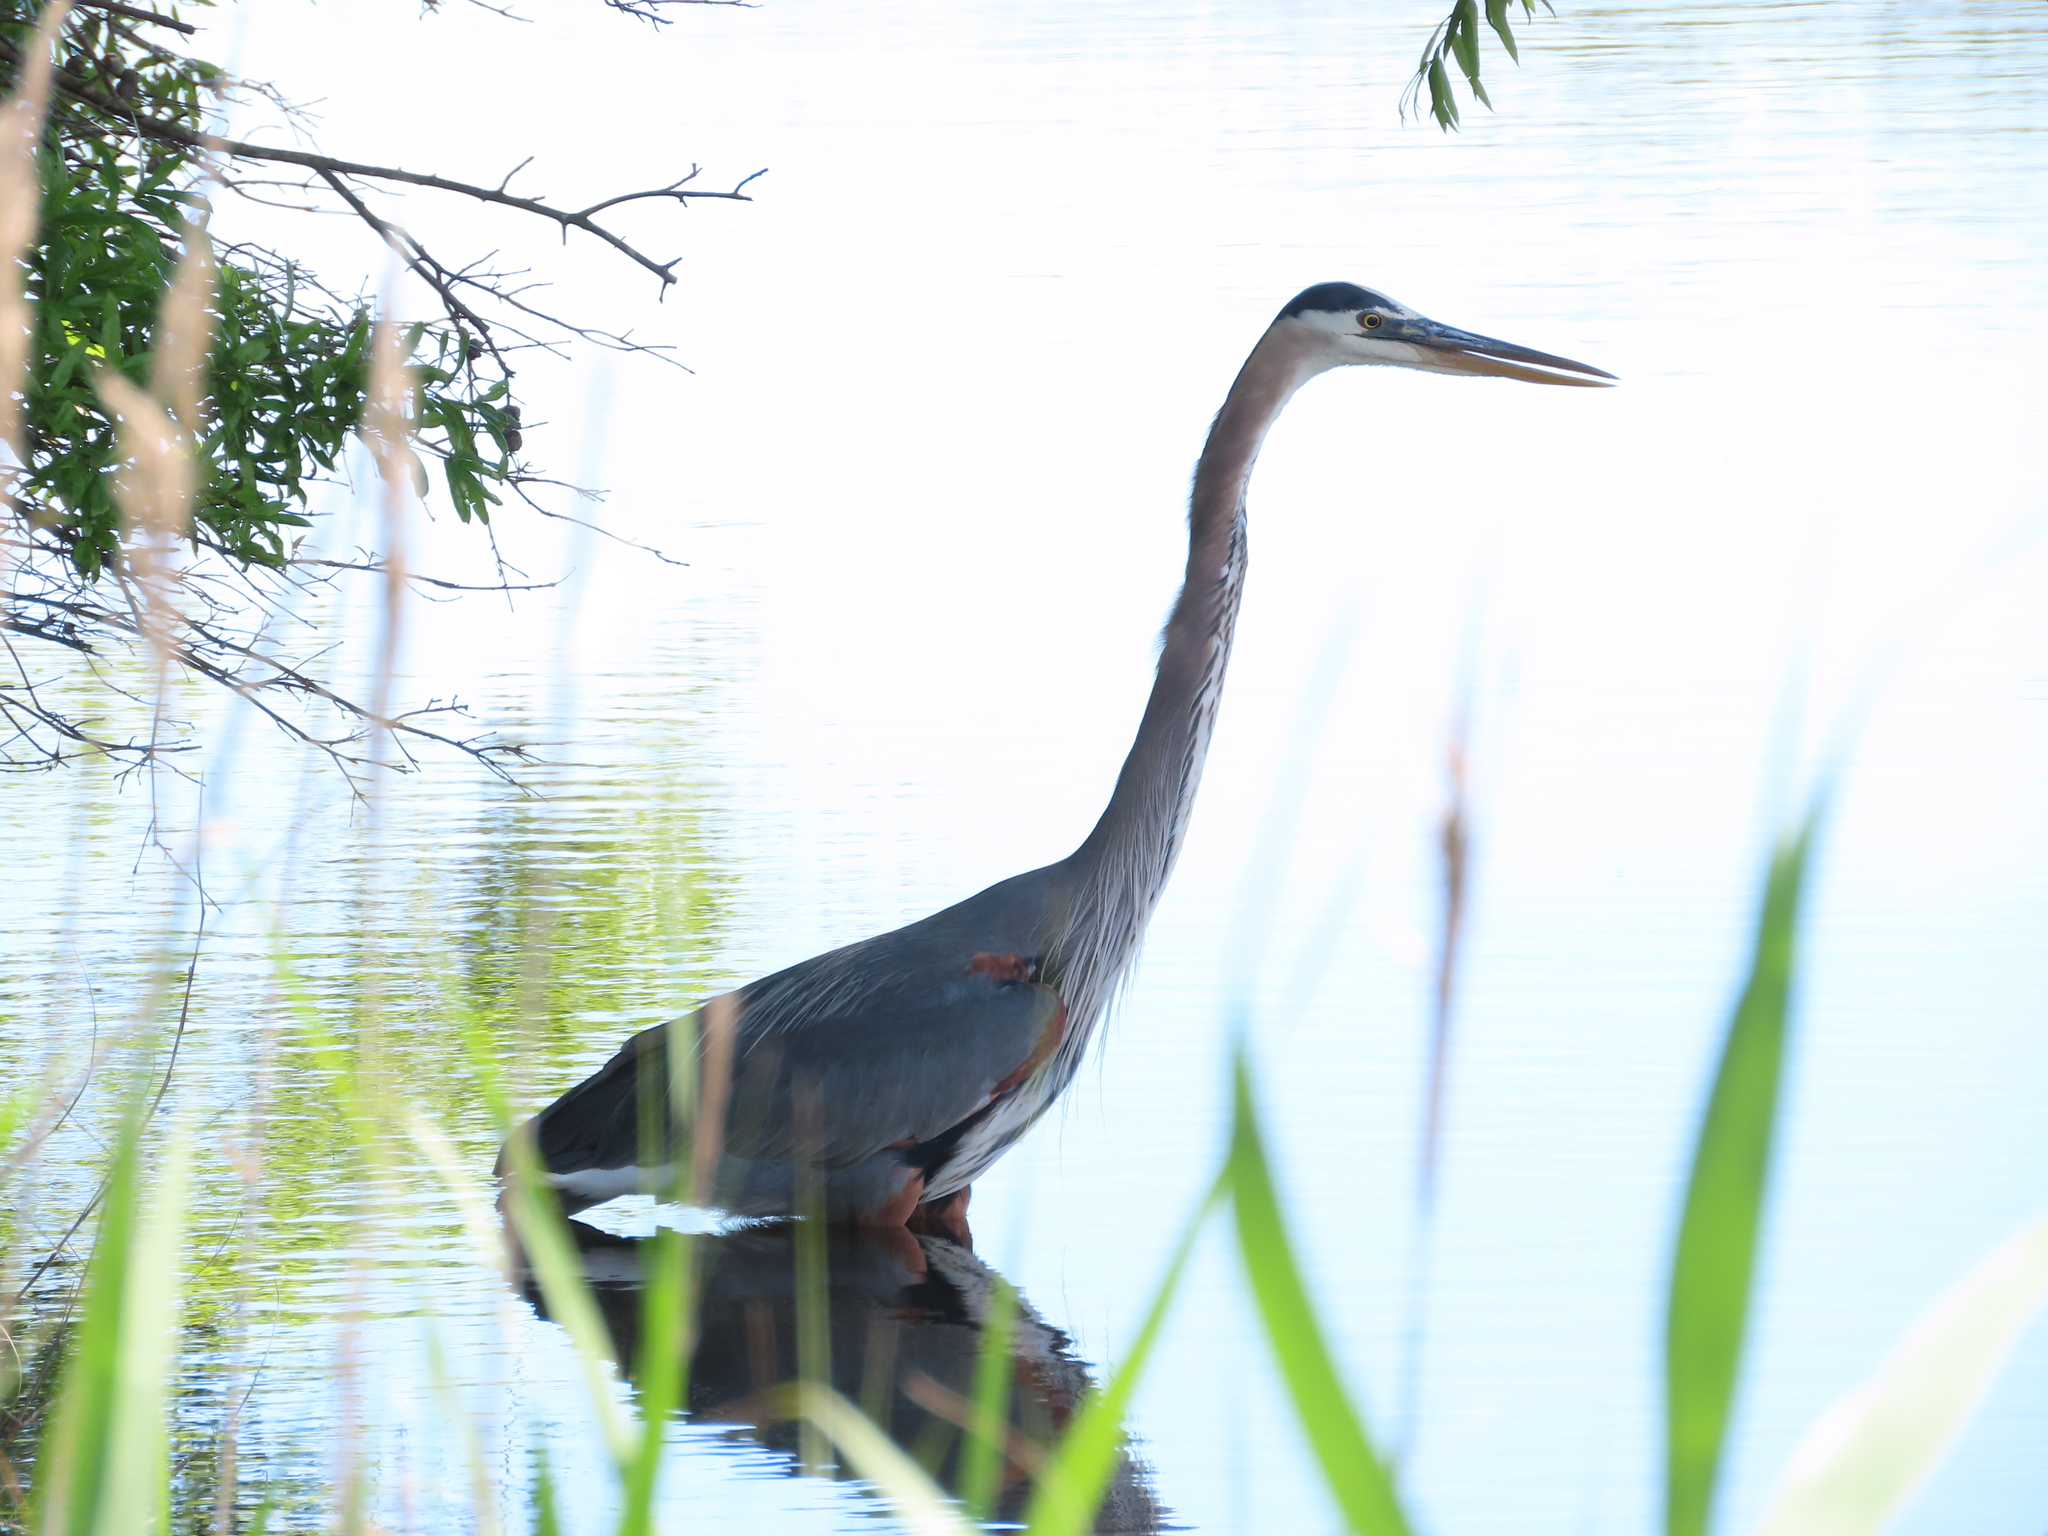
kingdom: Animalia
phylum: Chordata
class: Aves
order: Pelecaniformes
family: Ardeidae
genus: Ardea
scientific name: Ardea herodias
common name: Great blue heron
